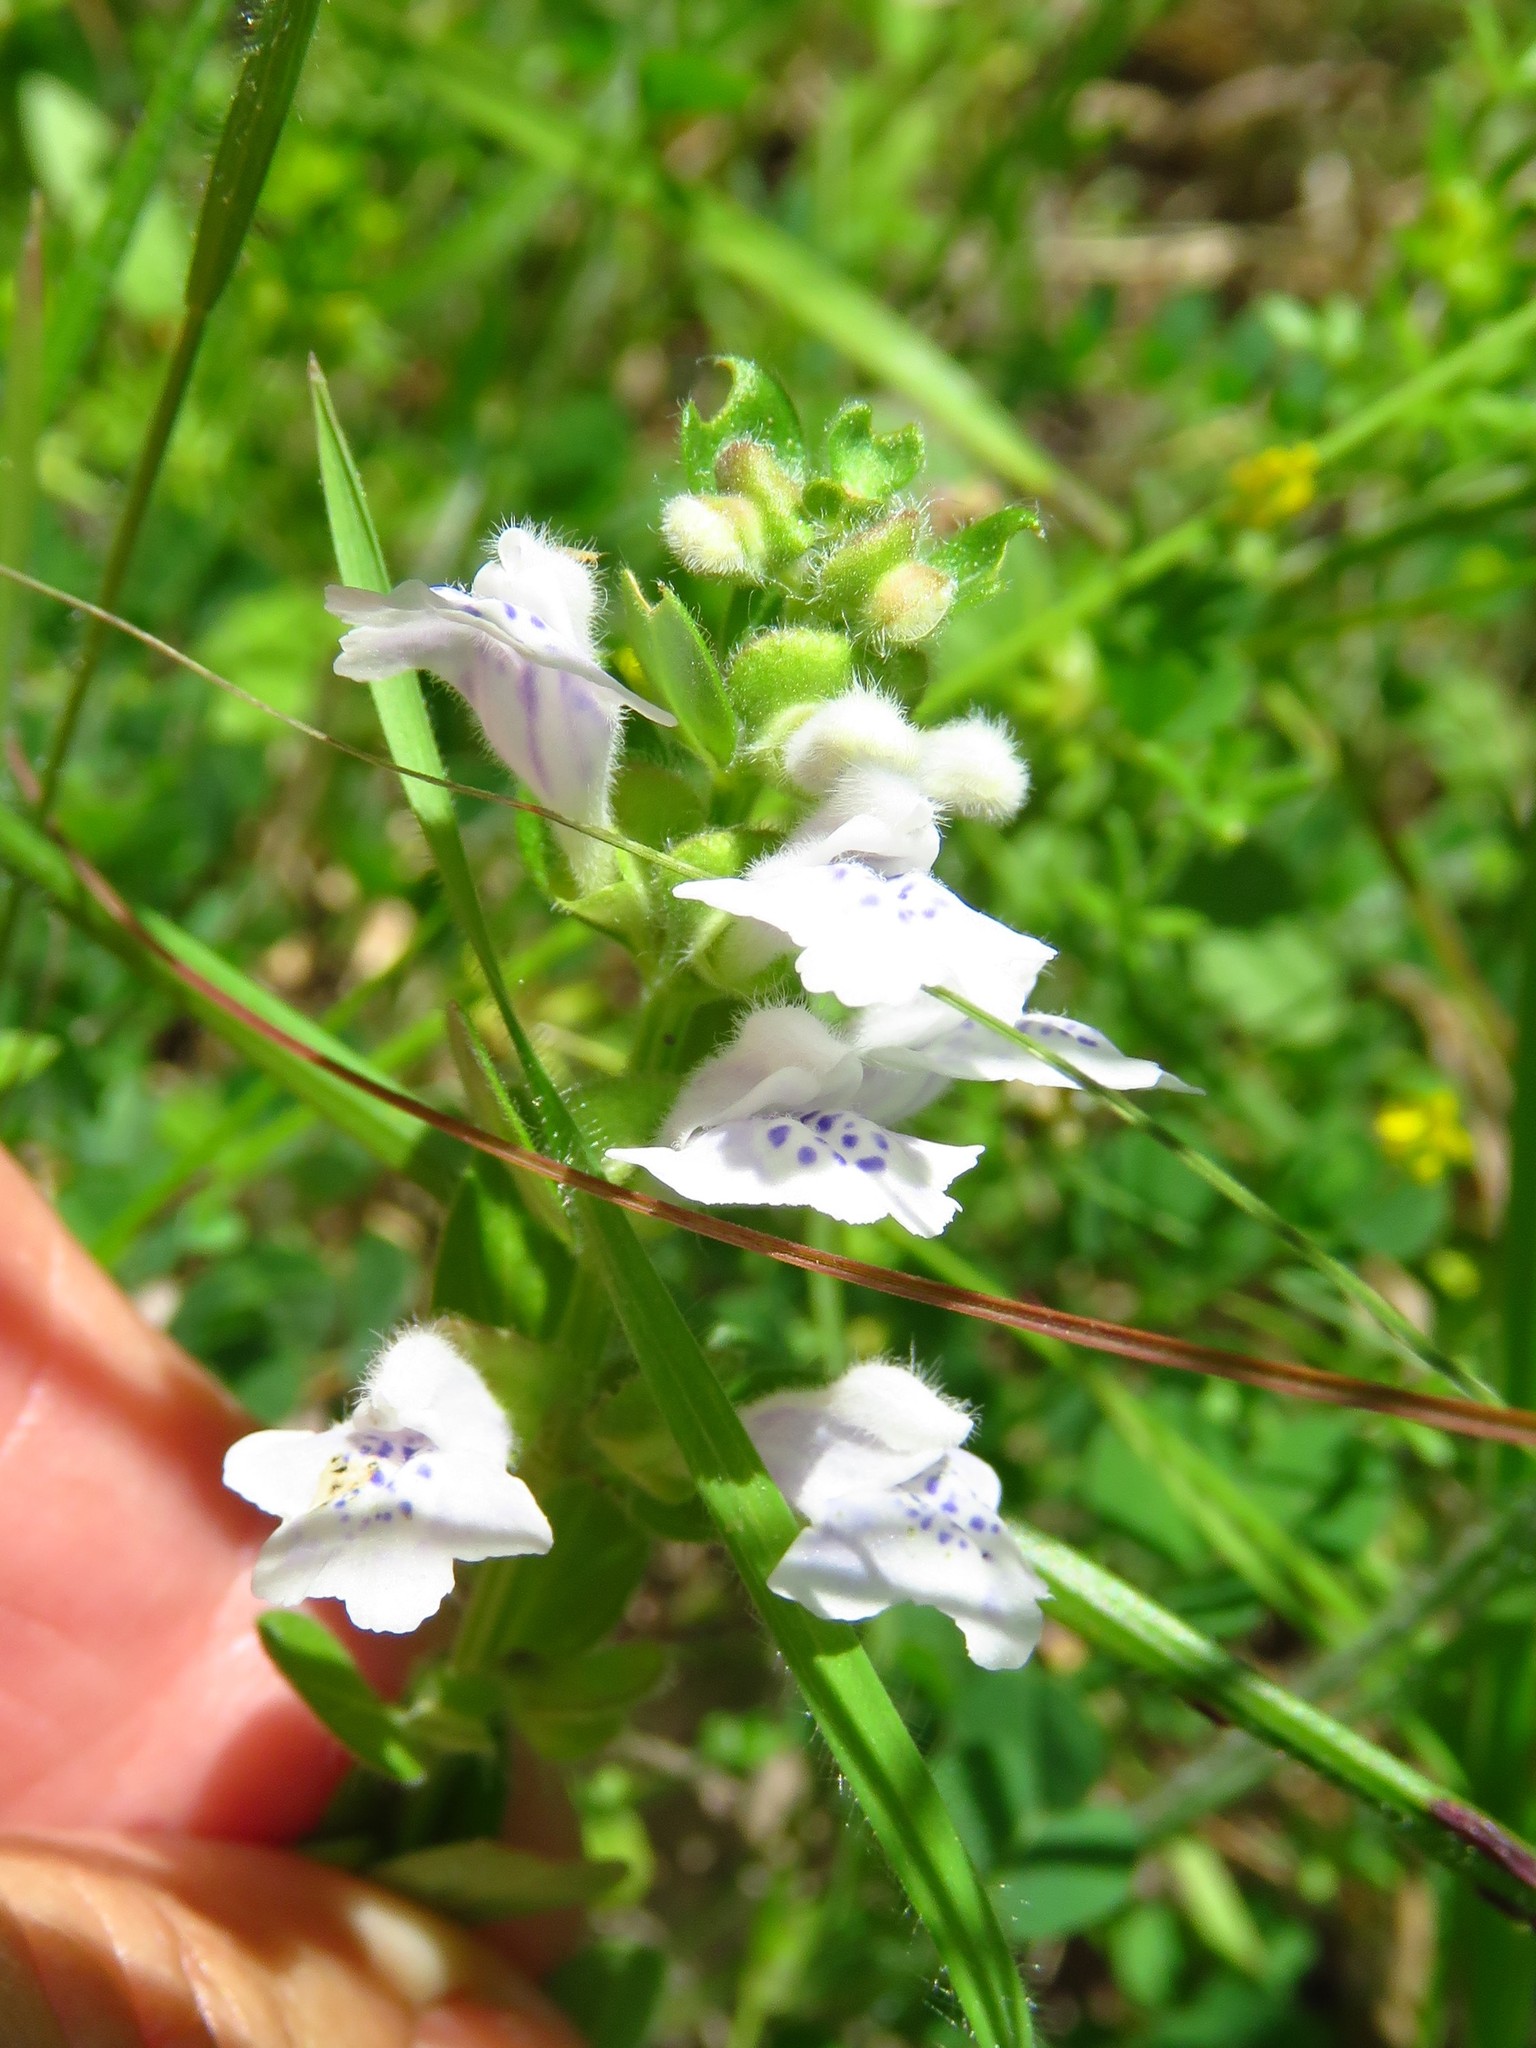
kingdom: Plantae
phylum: Tracheophyta
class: Magnoliopsida
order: Lamiales
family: Lamiaceae
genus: Scutellaria
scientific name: Scutellaria drummondii
